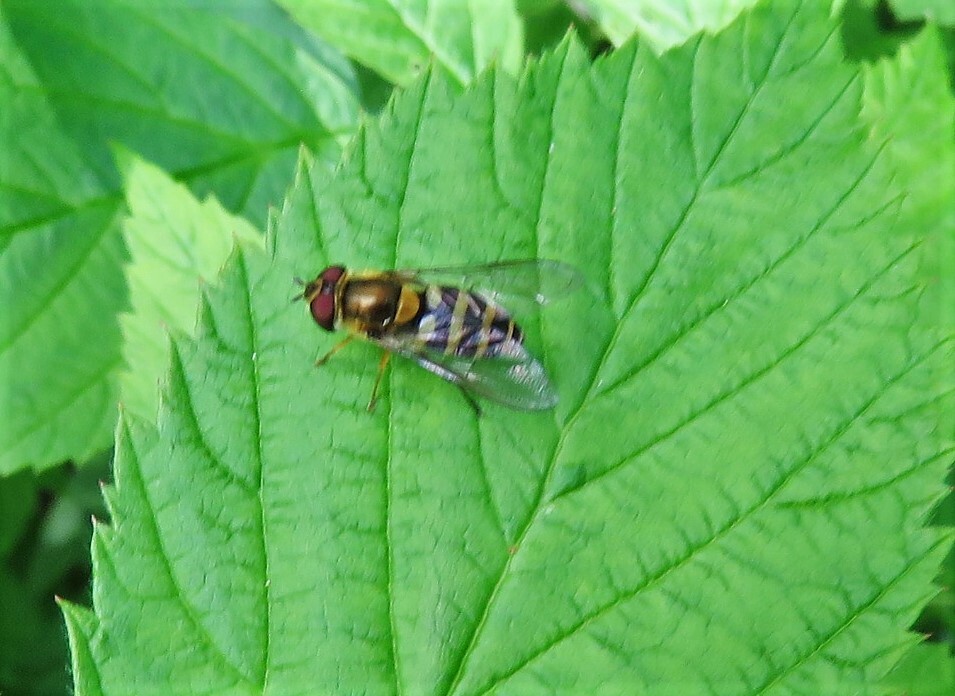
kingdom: Animalia
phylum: Arthropoda
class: Insecta
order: Diptera
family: Syrphidae
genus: Syrphus
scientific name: Syrphus rectus
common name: Yellow-legged flower fly
